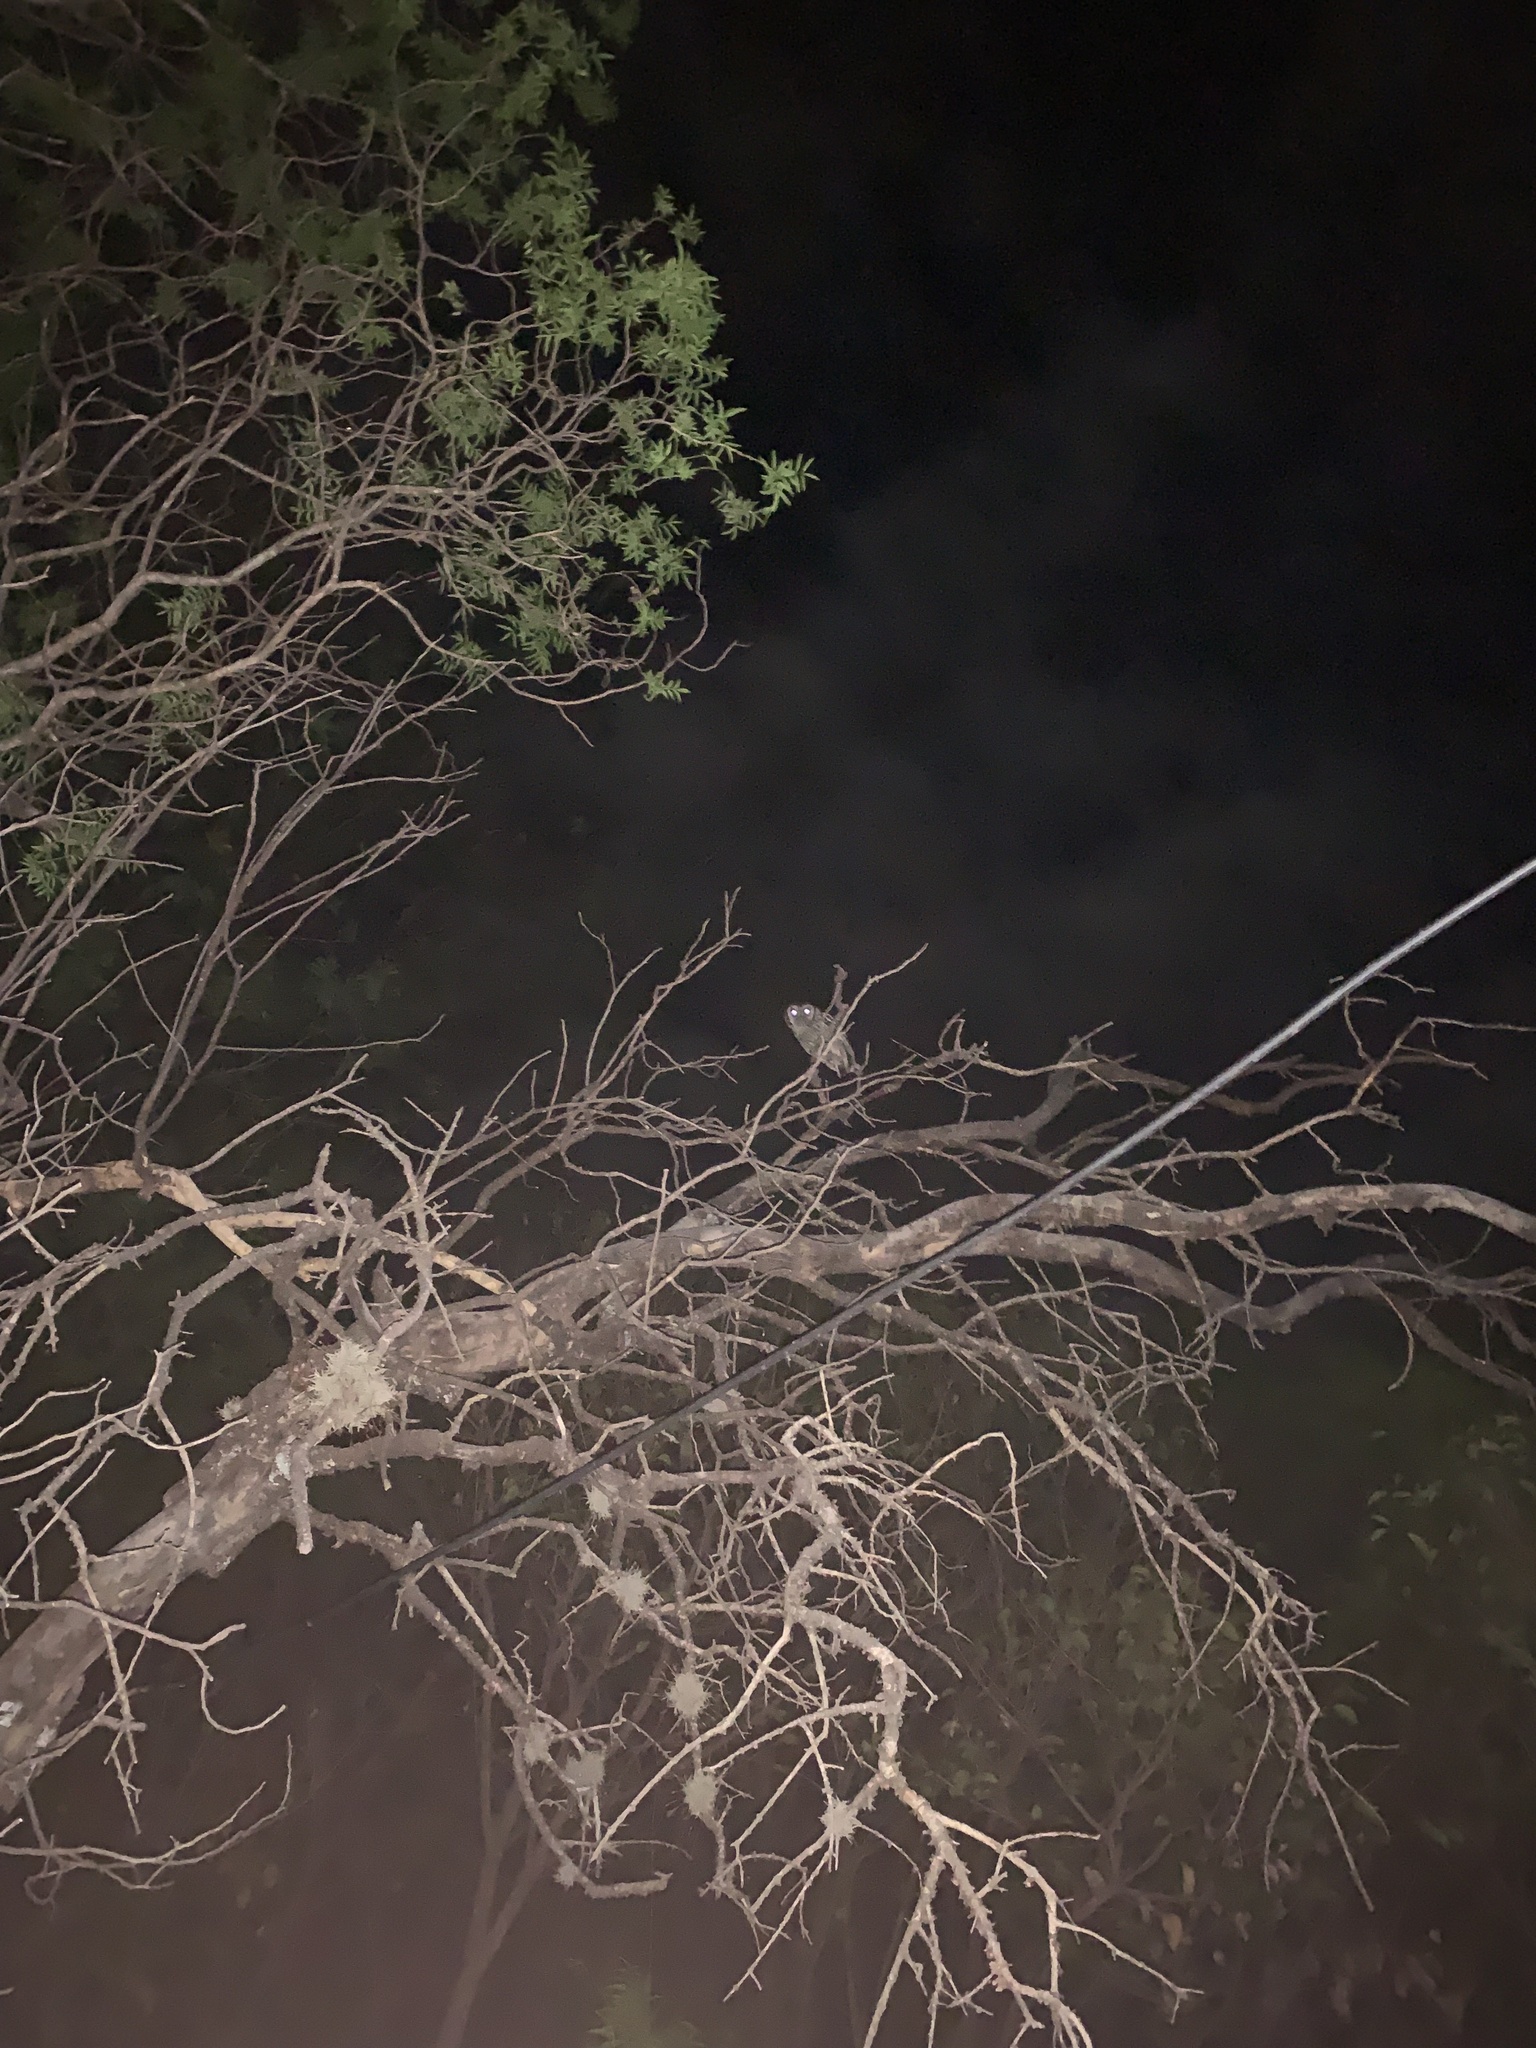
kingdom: Animalia
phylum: Chordata
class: Aves
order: Strigiformes
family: Strigidae
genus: Megascops
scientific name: Megascops choliba
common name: Tropical screech-owl
